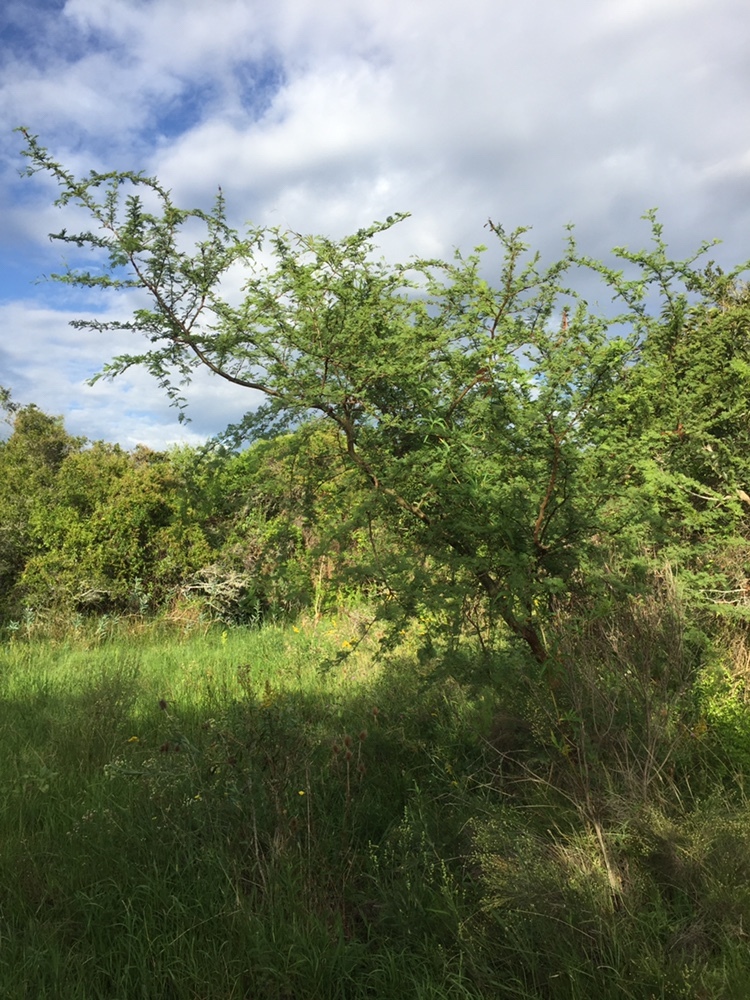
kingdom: Plantae
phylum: Tracheophyta
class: Magnoliopsida
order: Fabales
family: Fabaceae
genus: Vachellia
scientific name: Vachellia caven
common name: Roman cassie
